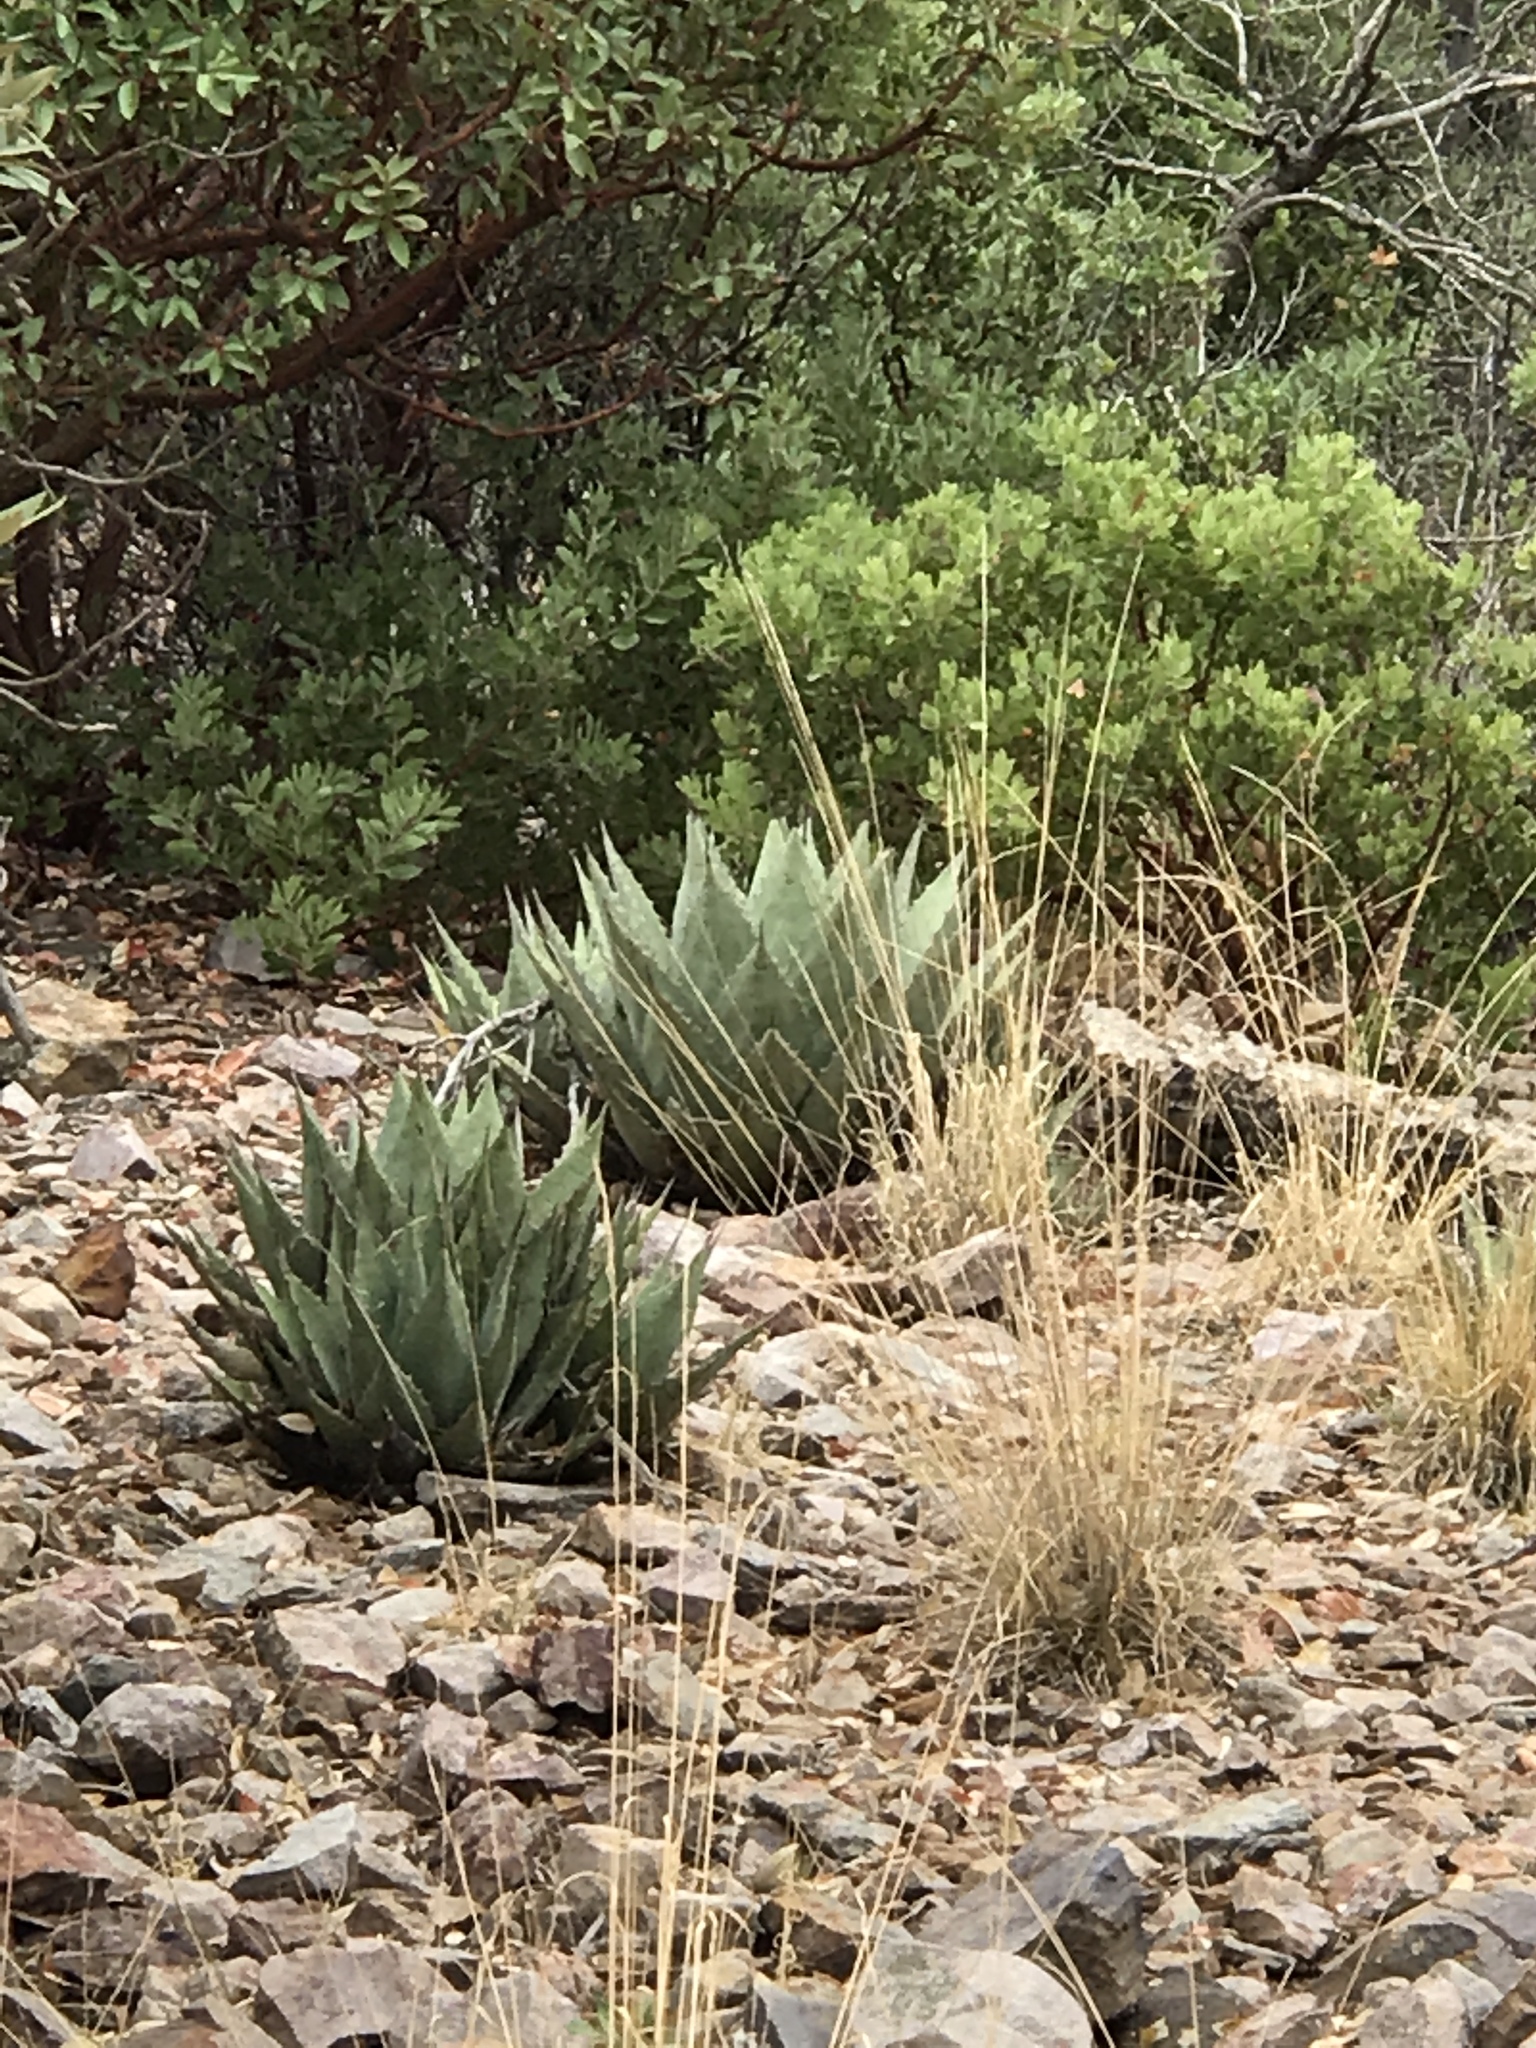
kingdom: Plantae
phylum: Tracheophyta
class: Liliopsida
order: Asparagales
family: Asparagaceae
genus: Agave
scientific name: Agave parryi
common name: Parry's agave
